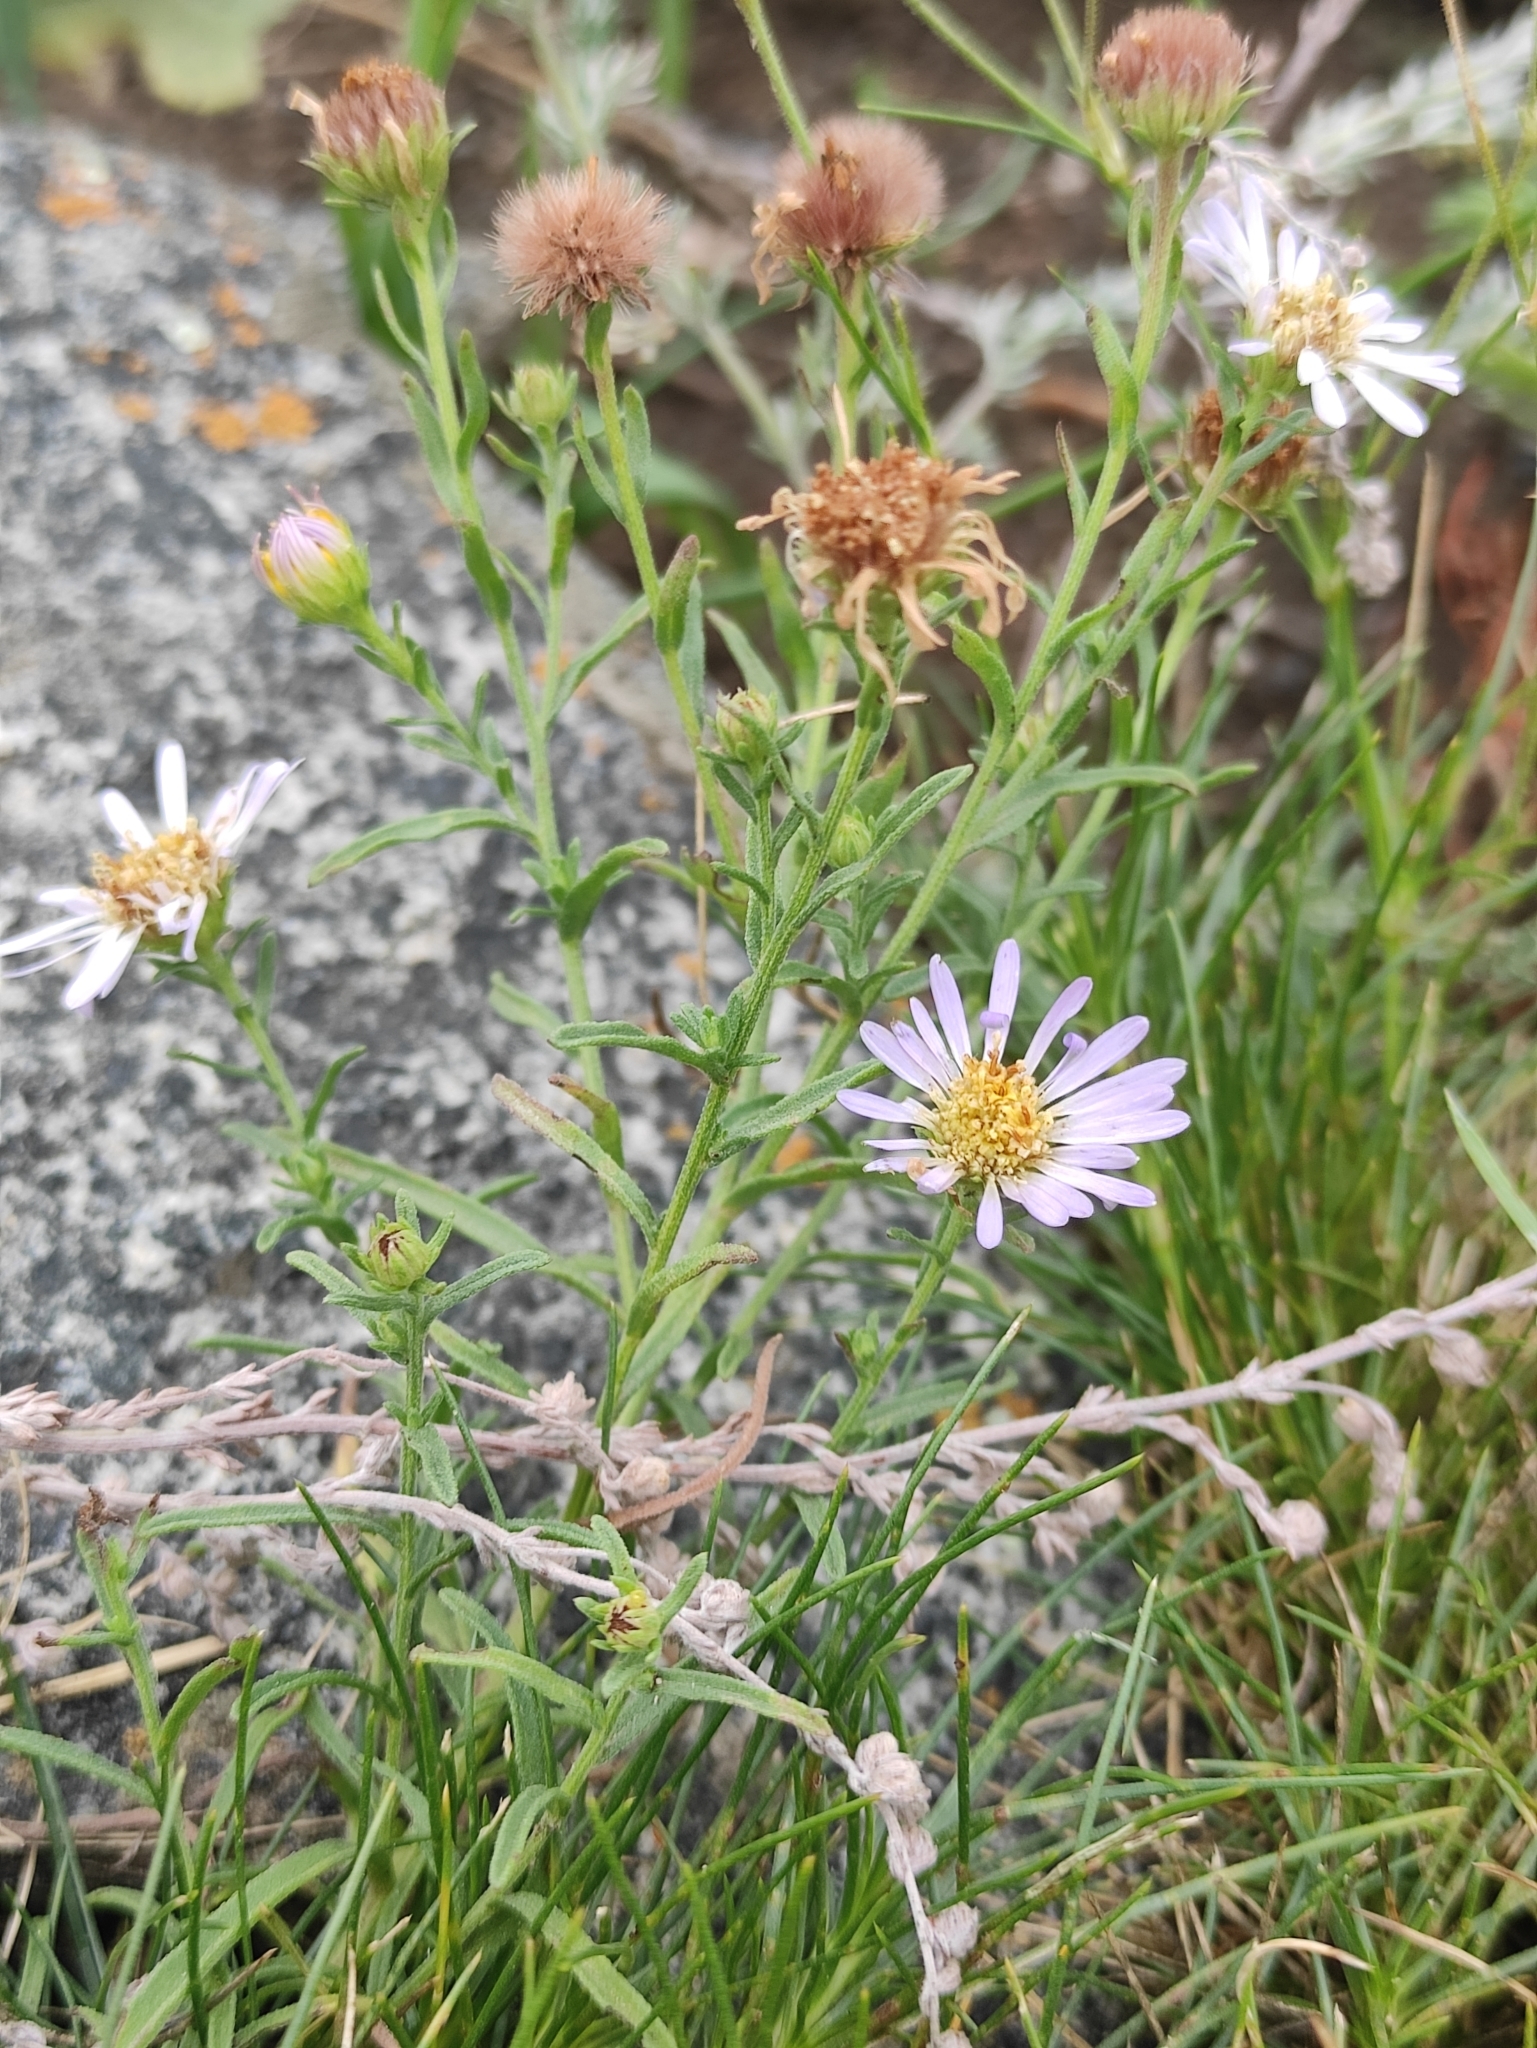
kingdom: Plantae
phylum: Tracheophyta
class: Magnoliopsida
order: Asterales
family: Asteraceae
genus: Heteropappus
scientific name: Heteropappus altaicus
